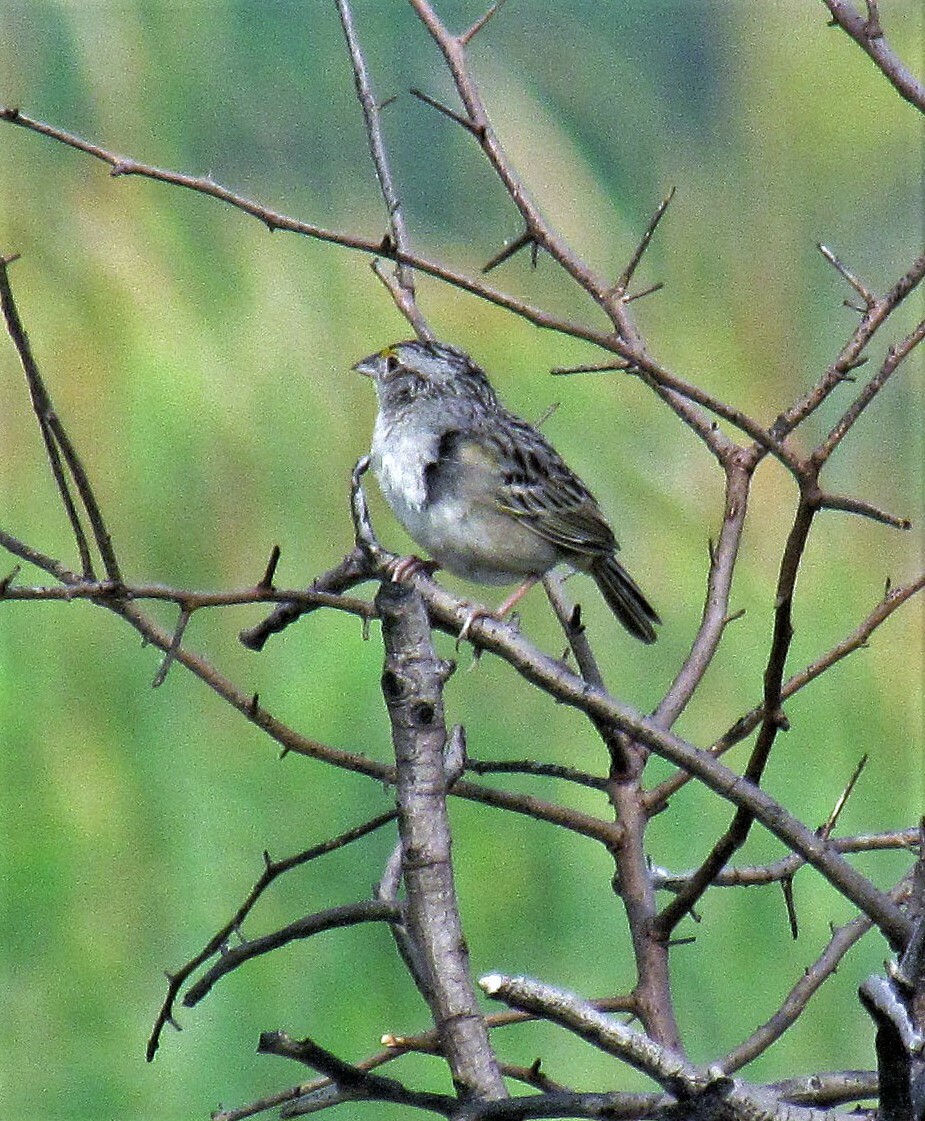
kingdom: Animalia
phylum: Chordata
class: Aves
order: Passeriformes
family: Passerellidae
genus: Ammodramus
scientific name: Ammodramus humeralis
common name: Grassland sparrow
